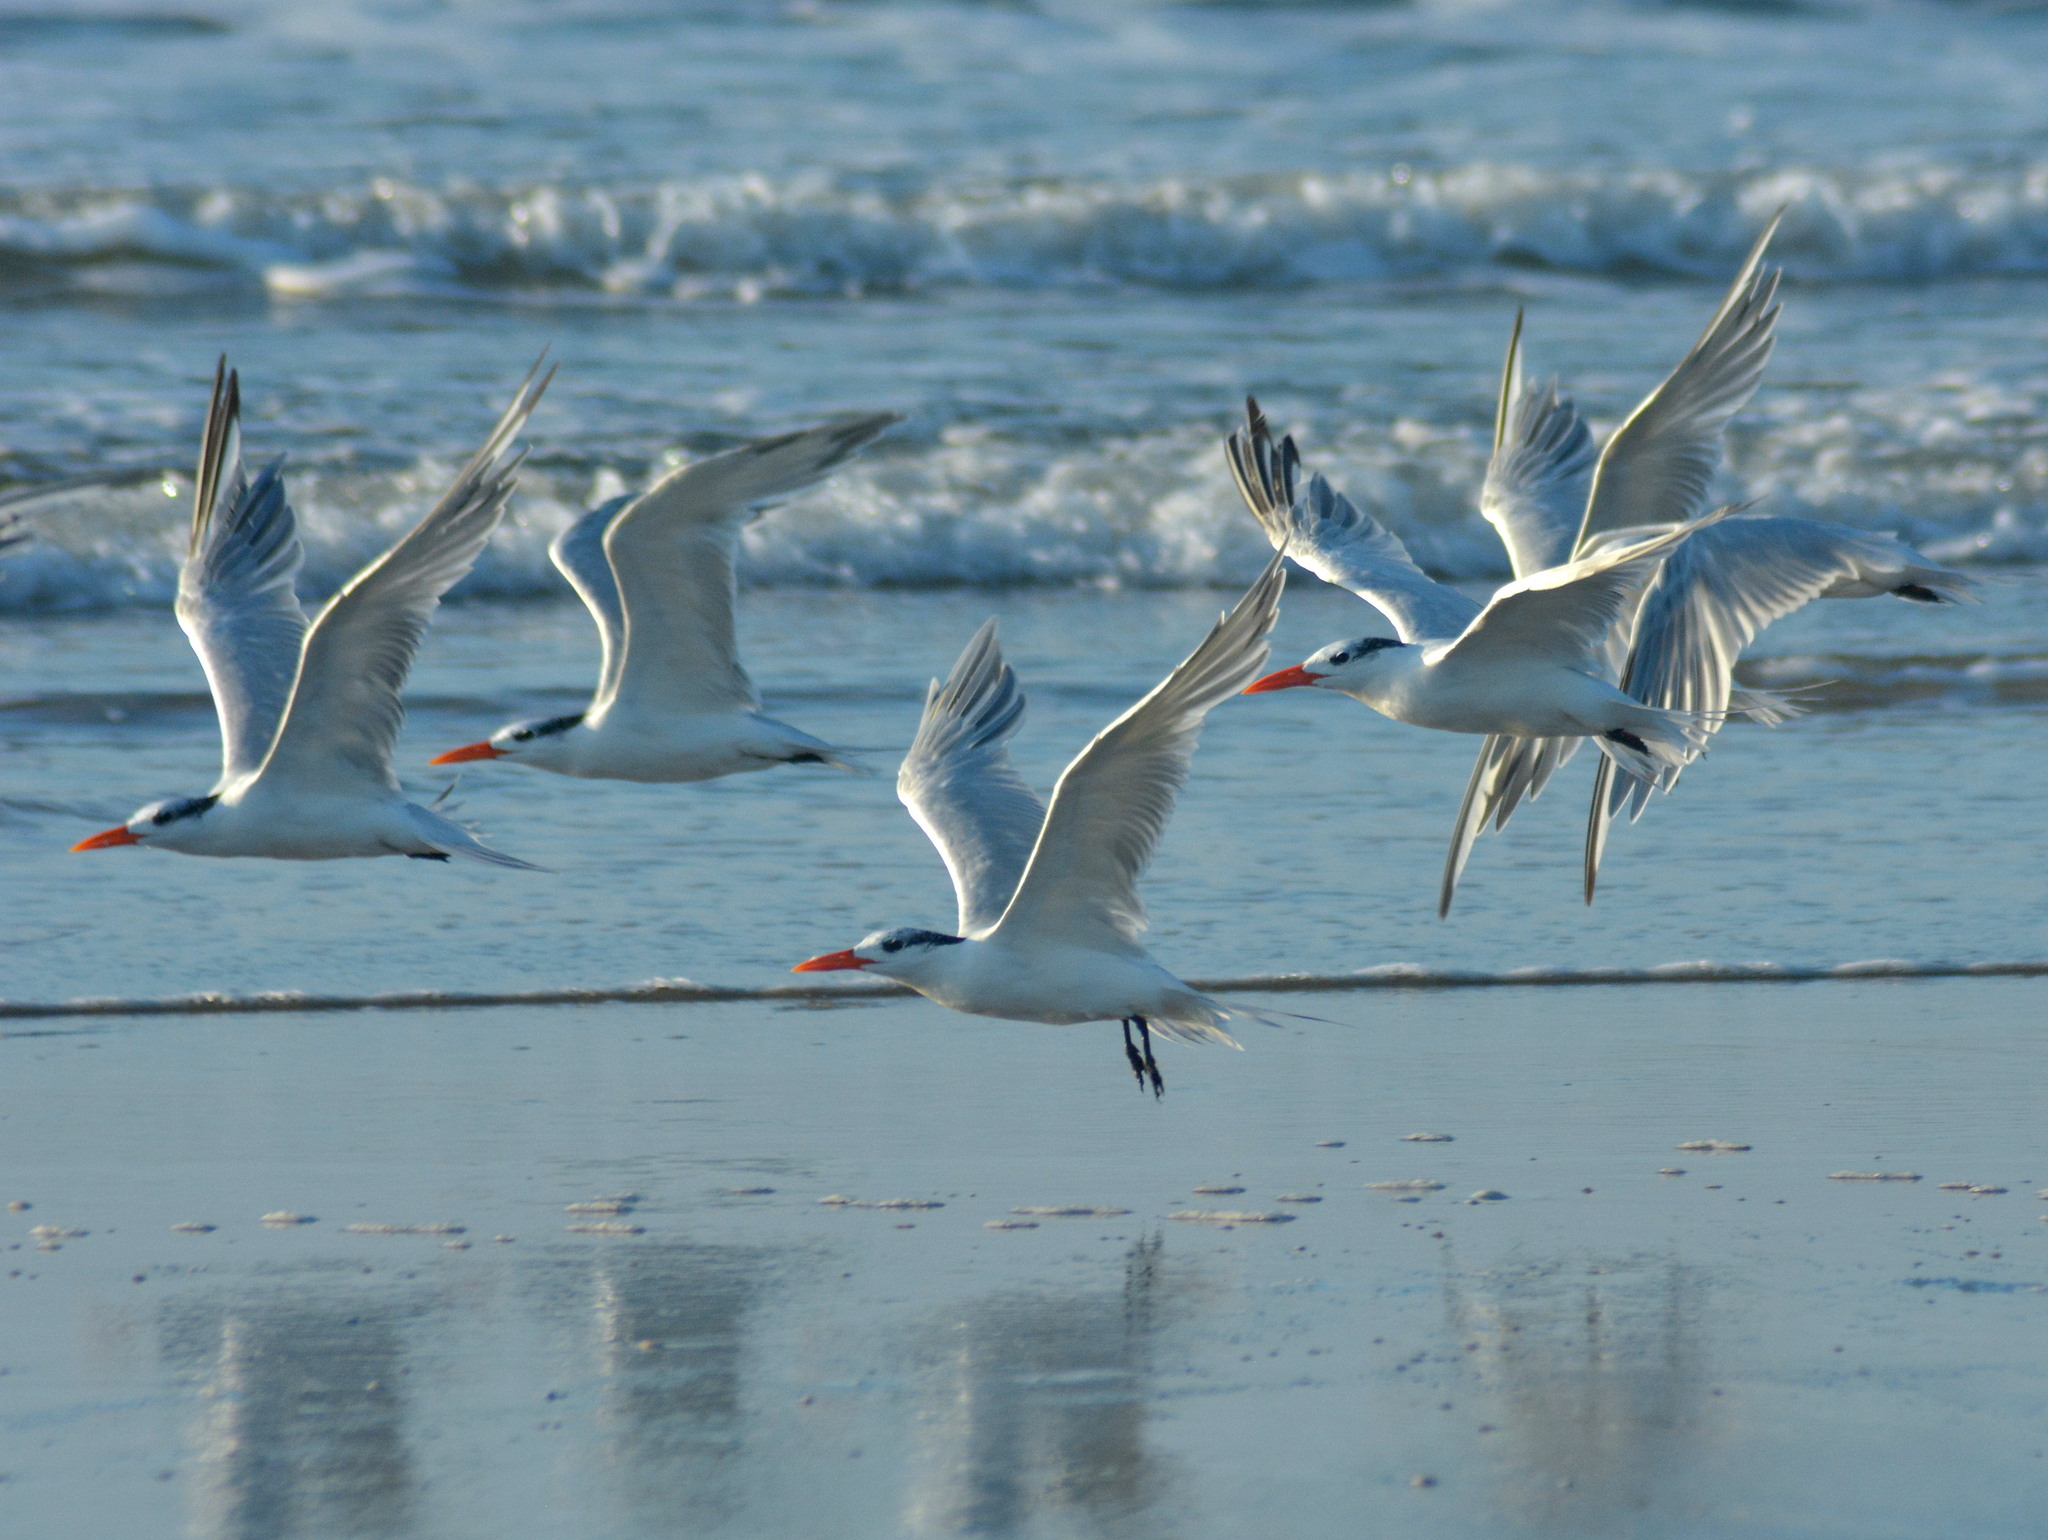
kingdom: Animalia
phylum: Chordata
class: Aves
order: Charadriiformes
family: Laridae
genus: Thalasseus
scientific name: Thalasseus maximus
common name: Royal tern
